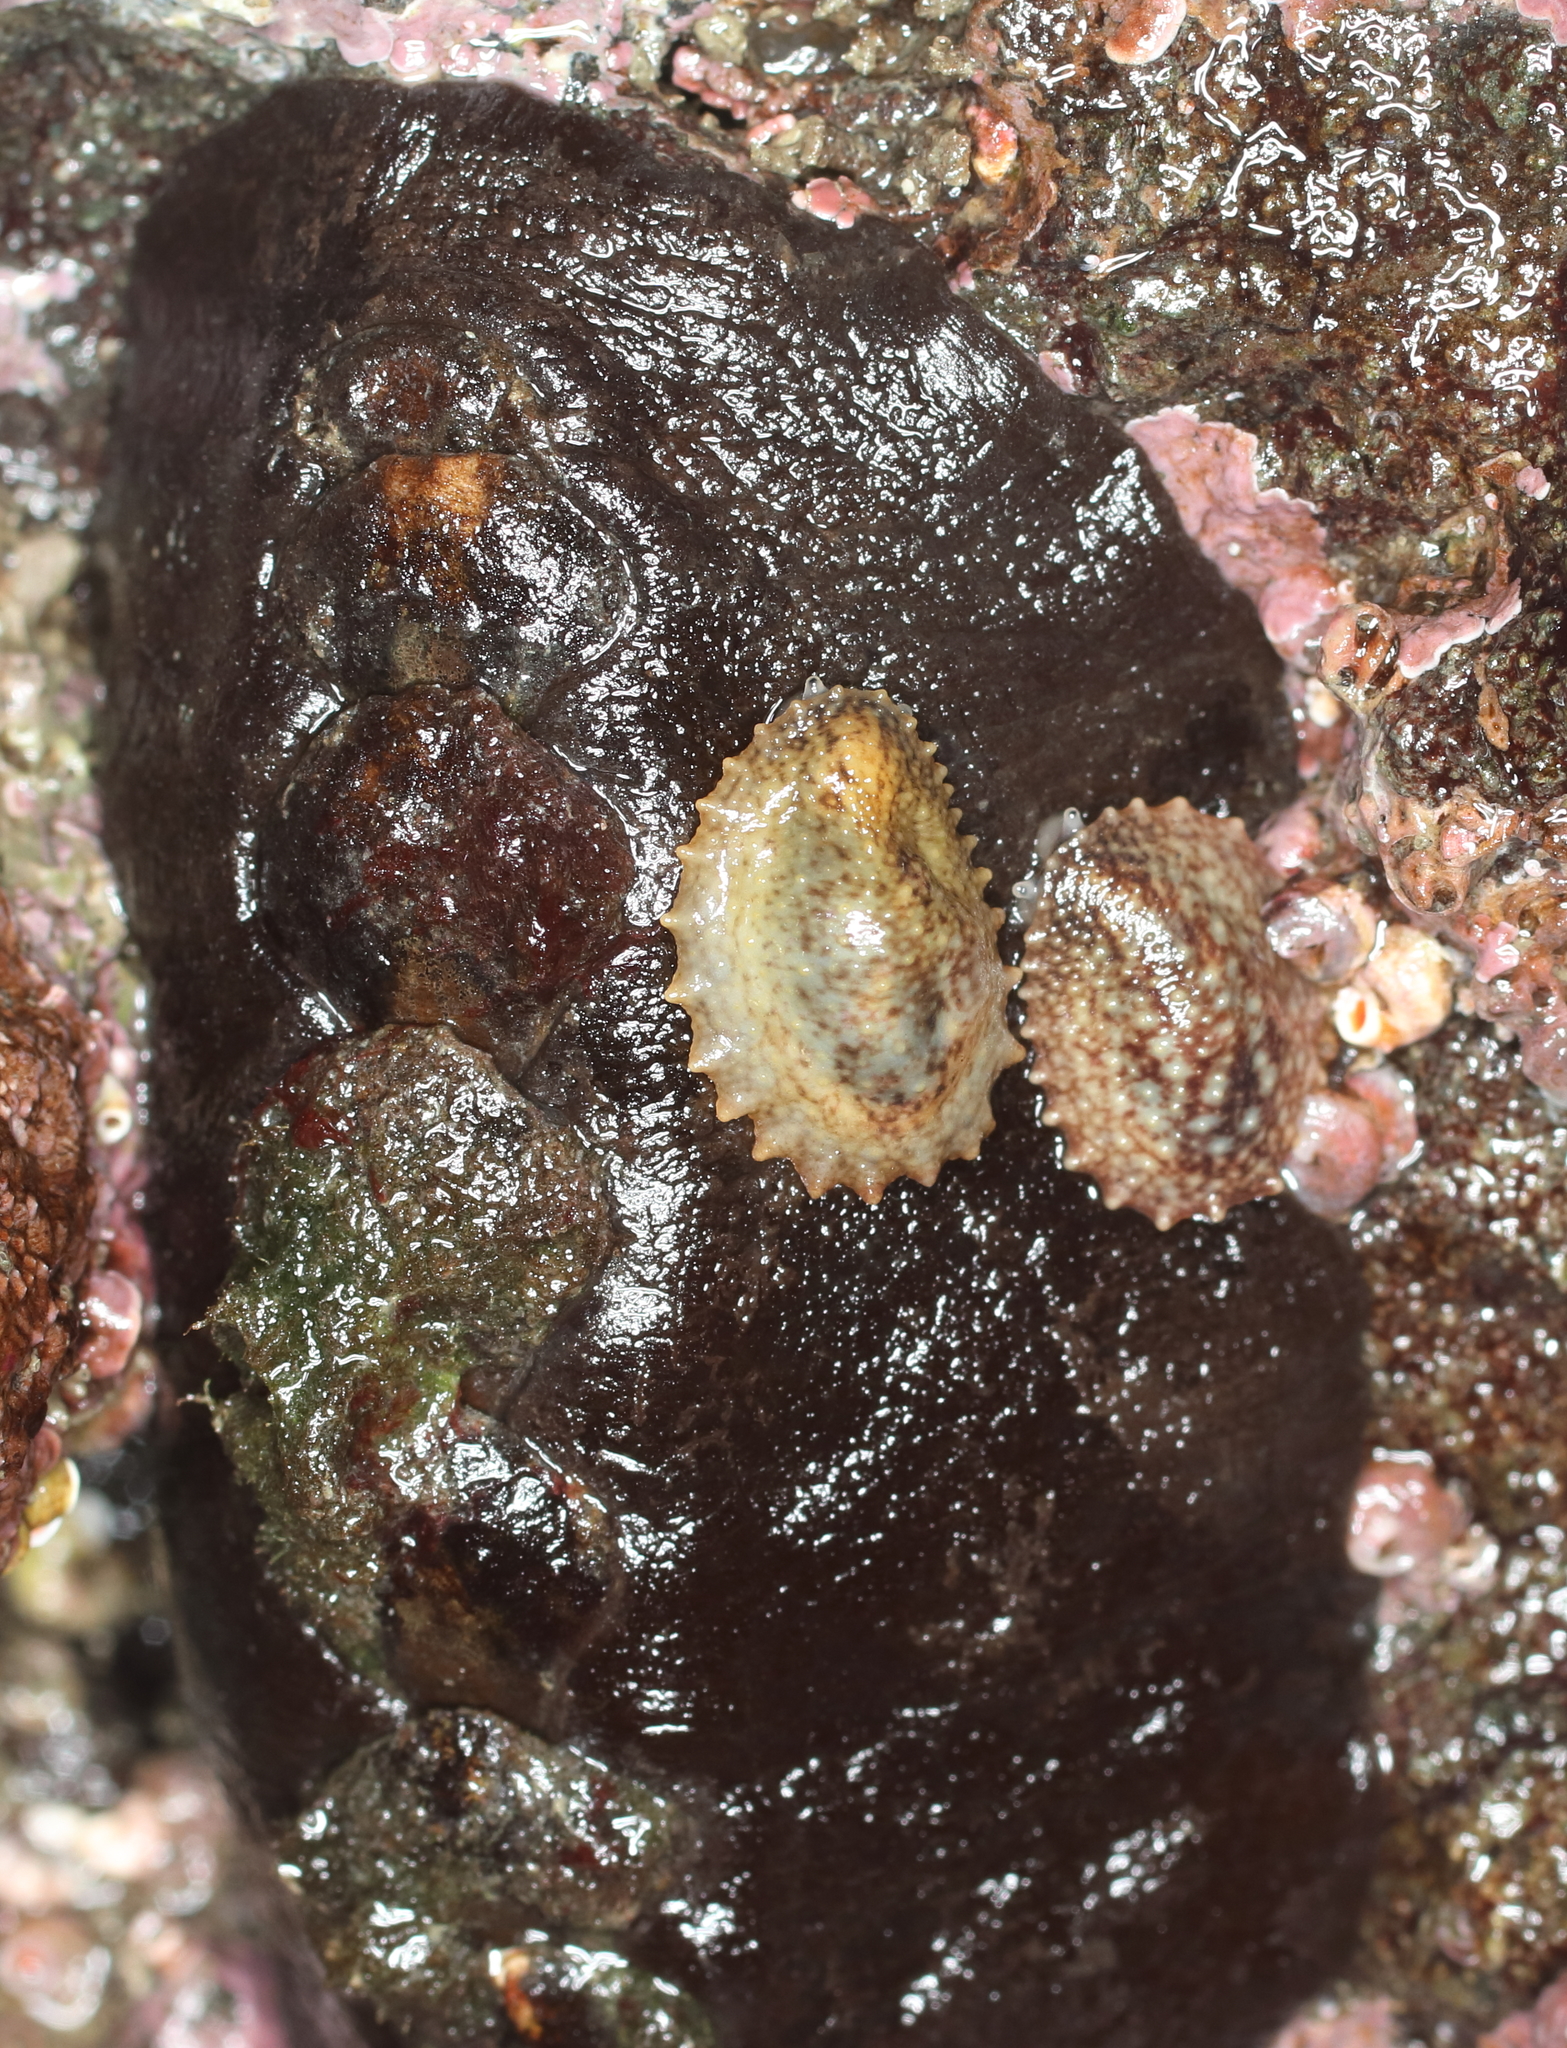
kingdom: Animalia
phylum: Mollusca
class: Gastropoda
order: Systellommatophora
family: Onchidiidae
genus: Onchidella
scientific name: Onchidella carpenteri
